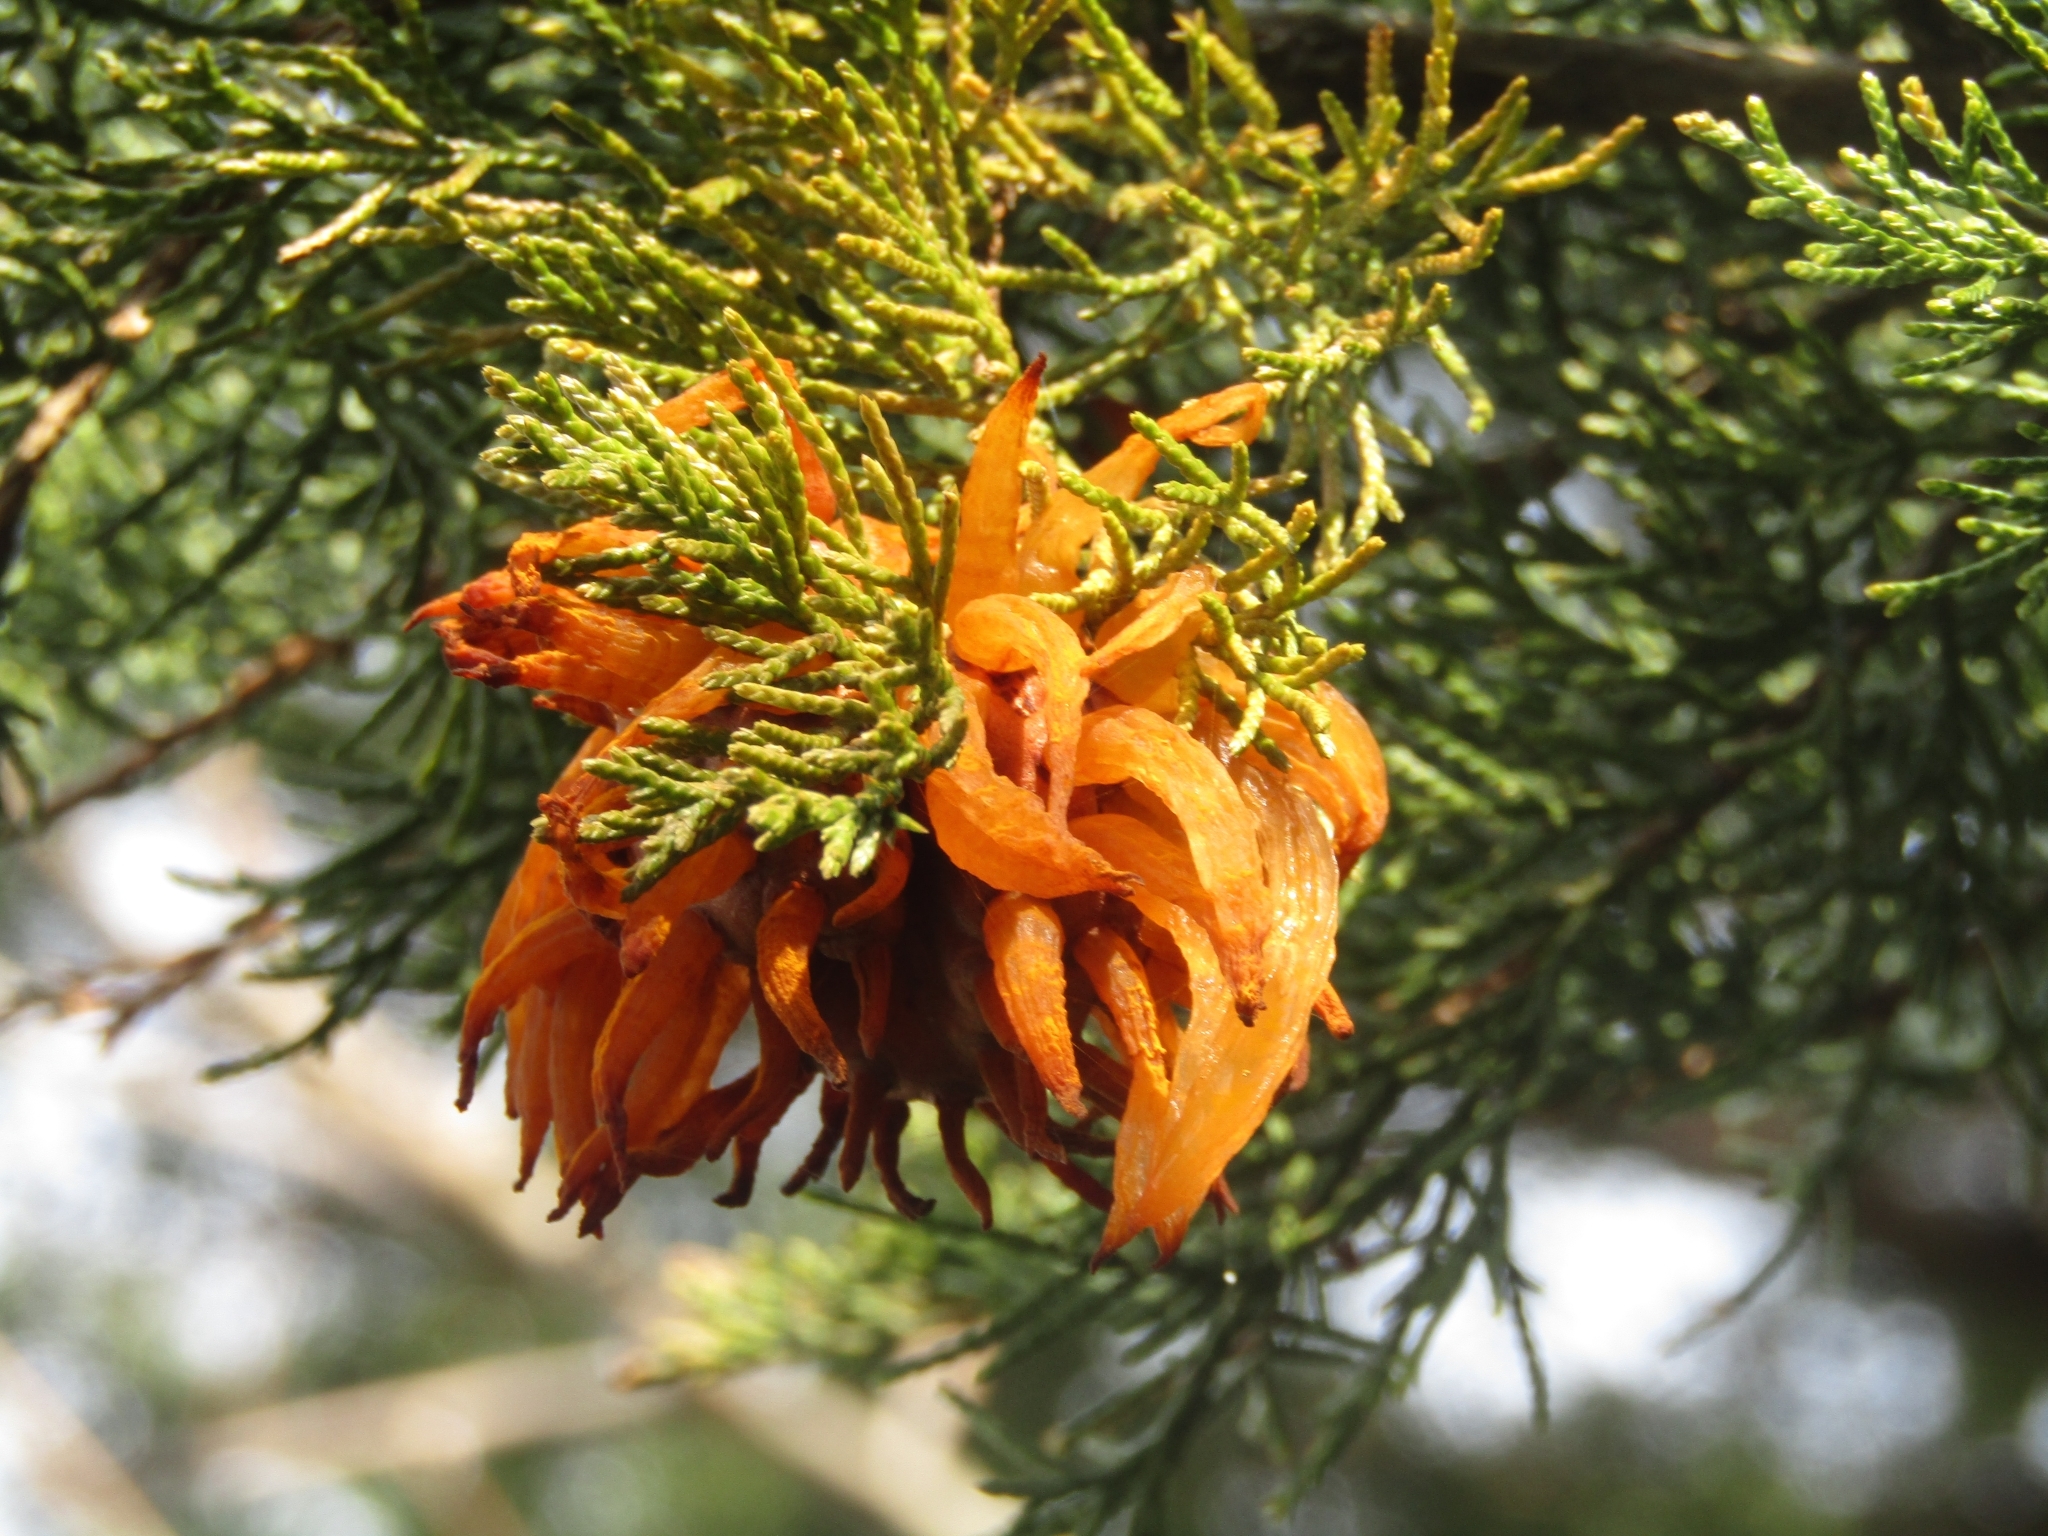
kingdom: Fungi
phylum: Basidiomycota
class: Pucciniomycetes
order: Pucciniales
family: Gymnosporangiaceae
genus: Gymnosporangium
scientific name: Gymnosporangium juniperi-virginianae
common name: Juniper-apple rust
